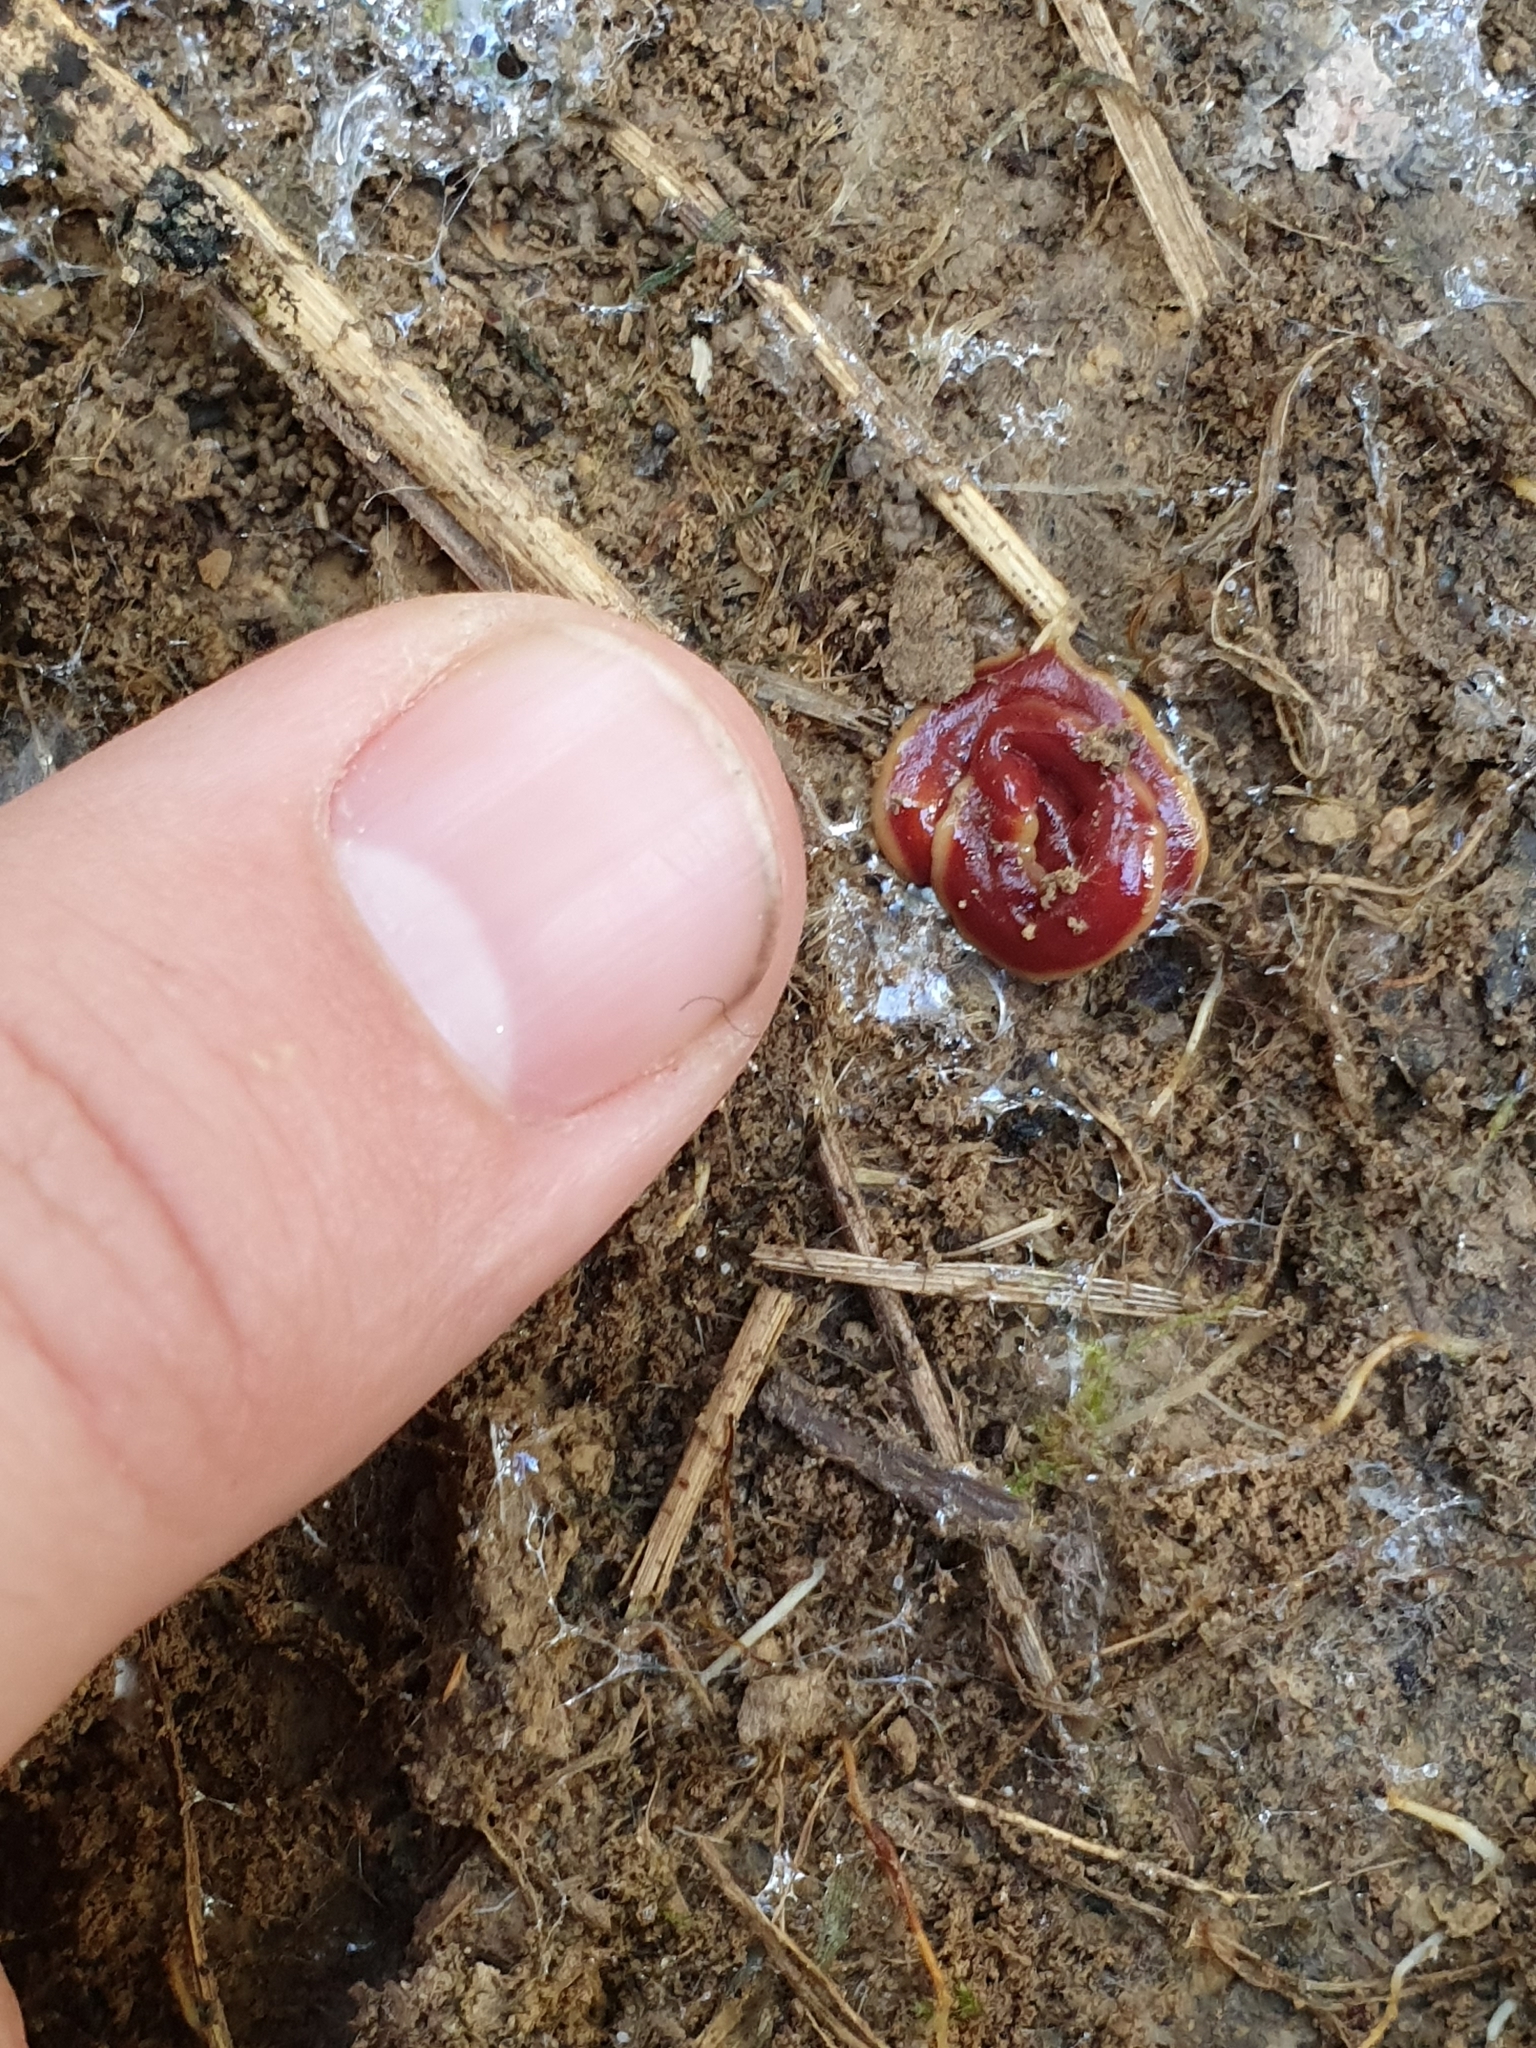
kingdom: Animalia
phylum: Platyhelminthes
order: Tricladida
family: Geoplanidae
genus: Arthurdendyus
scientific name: Arthurdendyus testaceus
